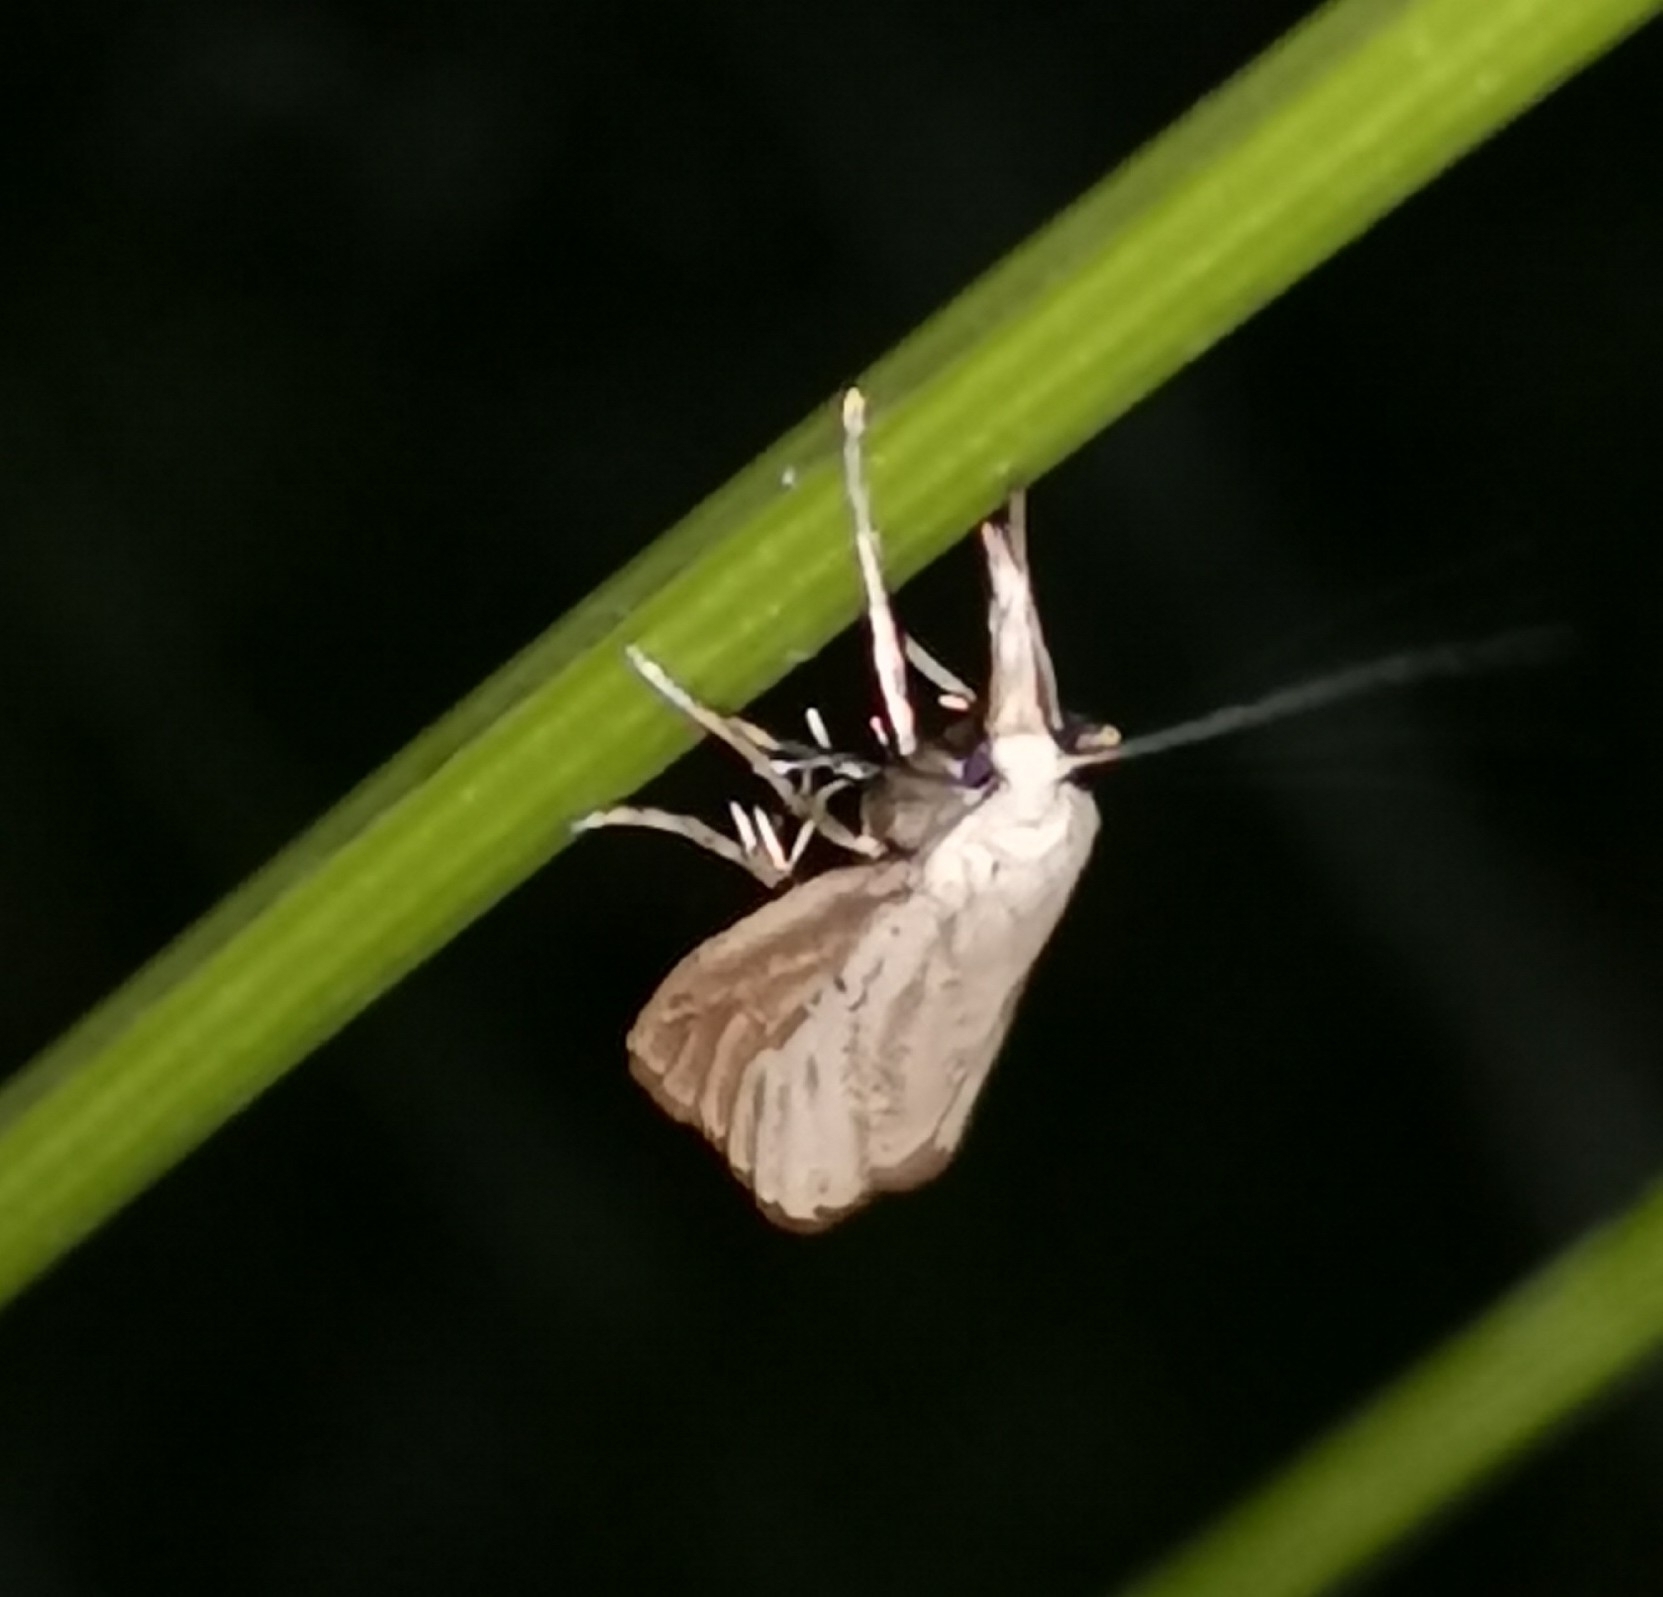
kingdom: Animalia
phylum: Arthropoda
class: Insecta
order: Lepidoptera
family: Crambidae
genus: Agriphila
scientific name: Agriphila straminella
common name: Straw grass-veneer
